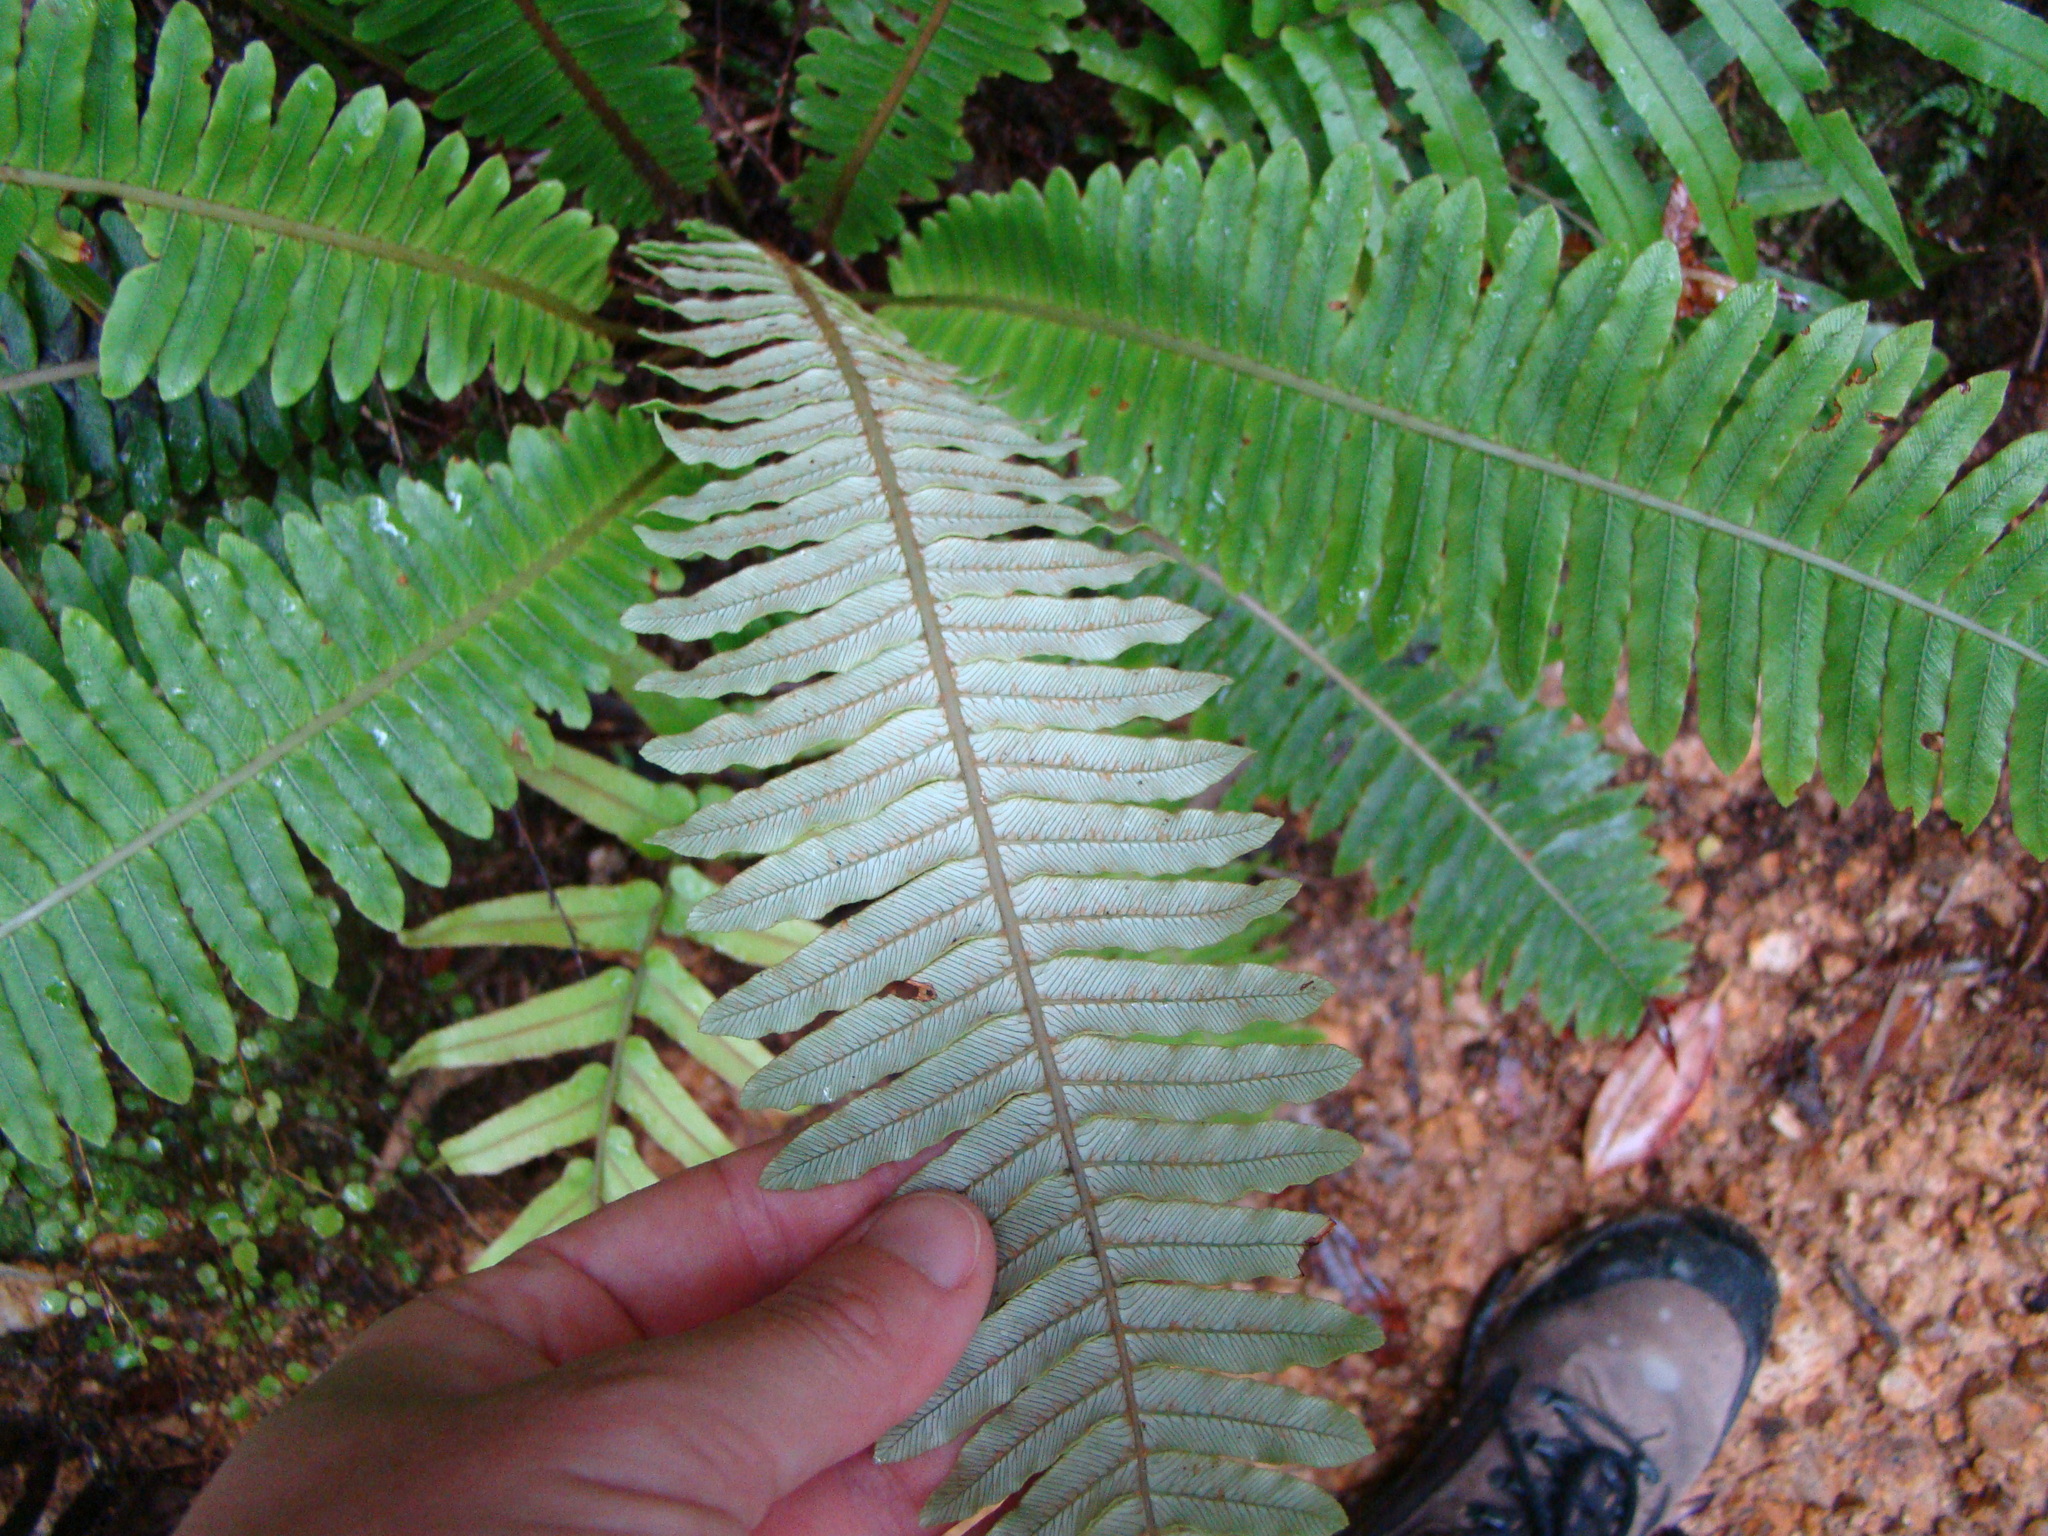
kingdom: Plantae
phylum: Tracheophyta
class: Polypodiopsida
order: Polypodiales
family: Blechnaceae
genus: Lomaria
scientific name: Lomaria discolor
